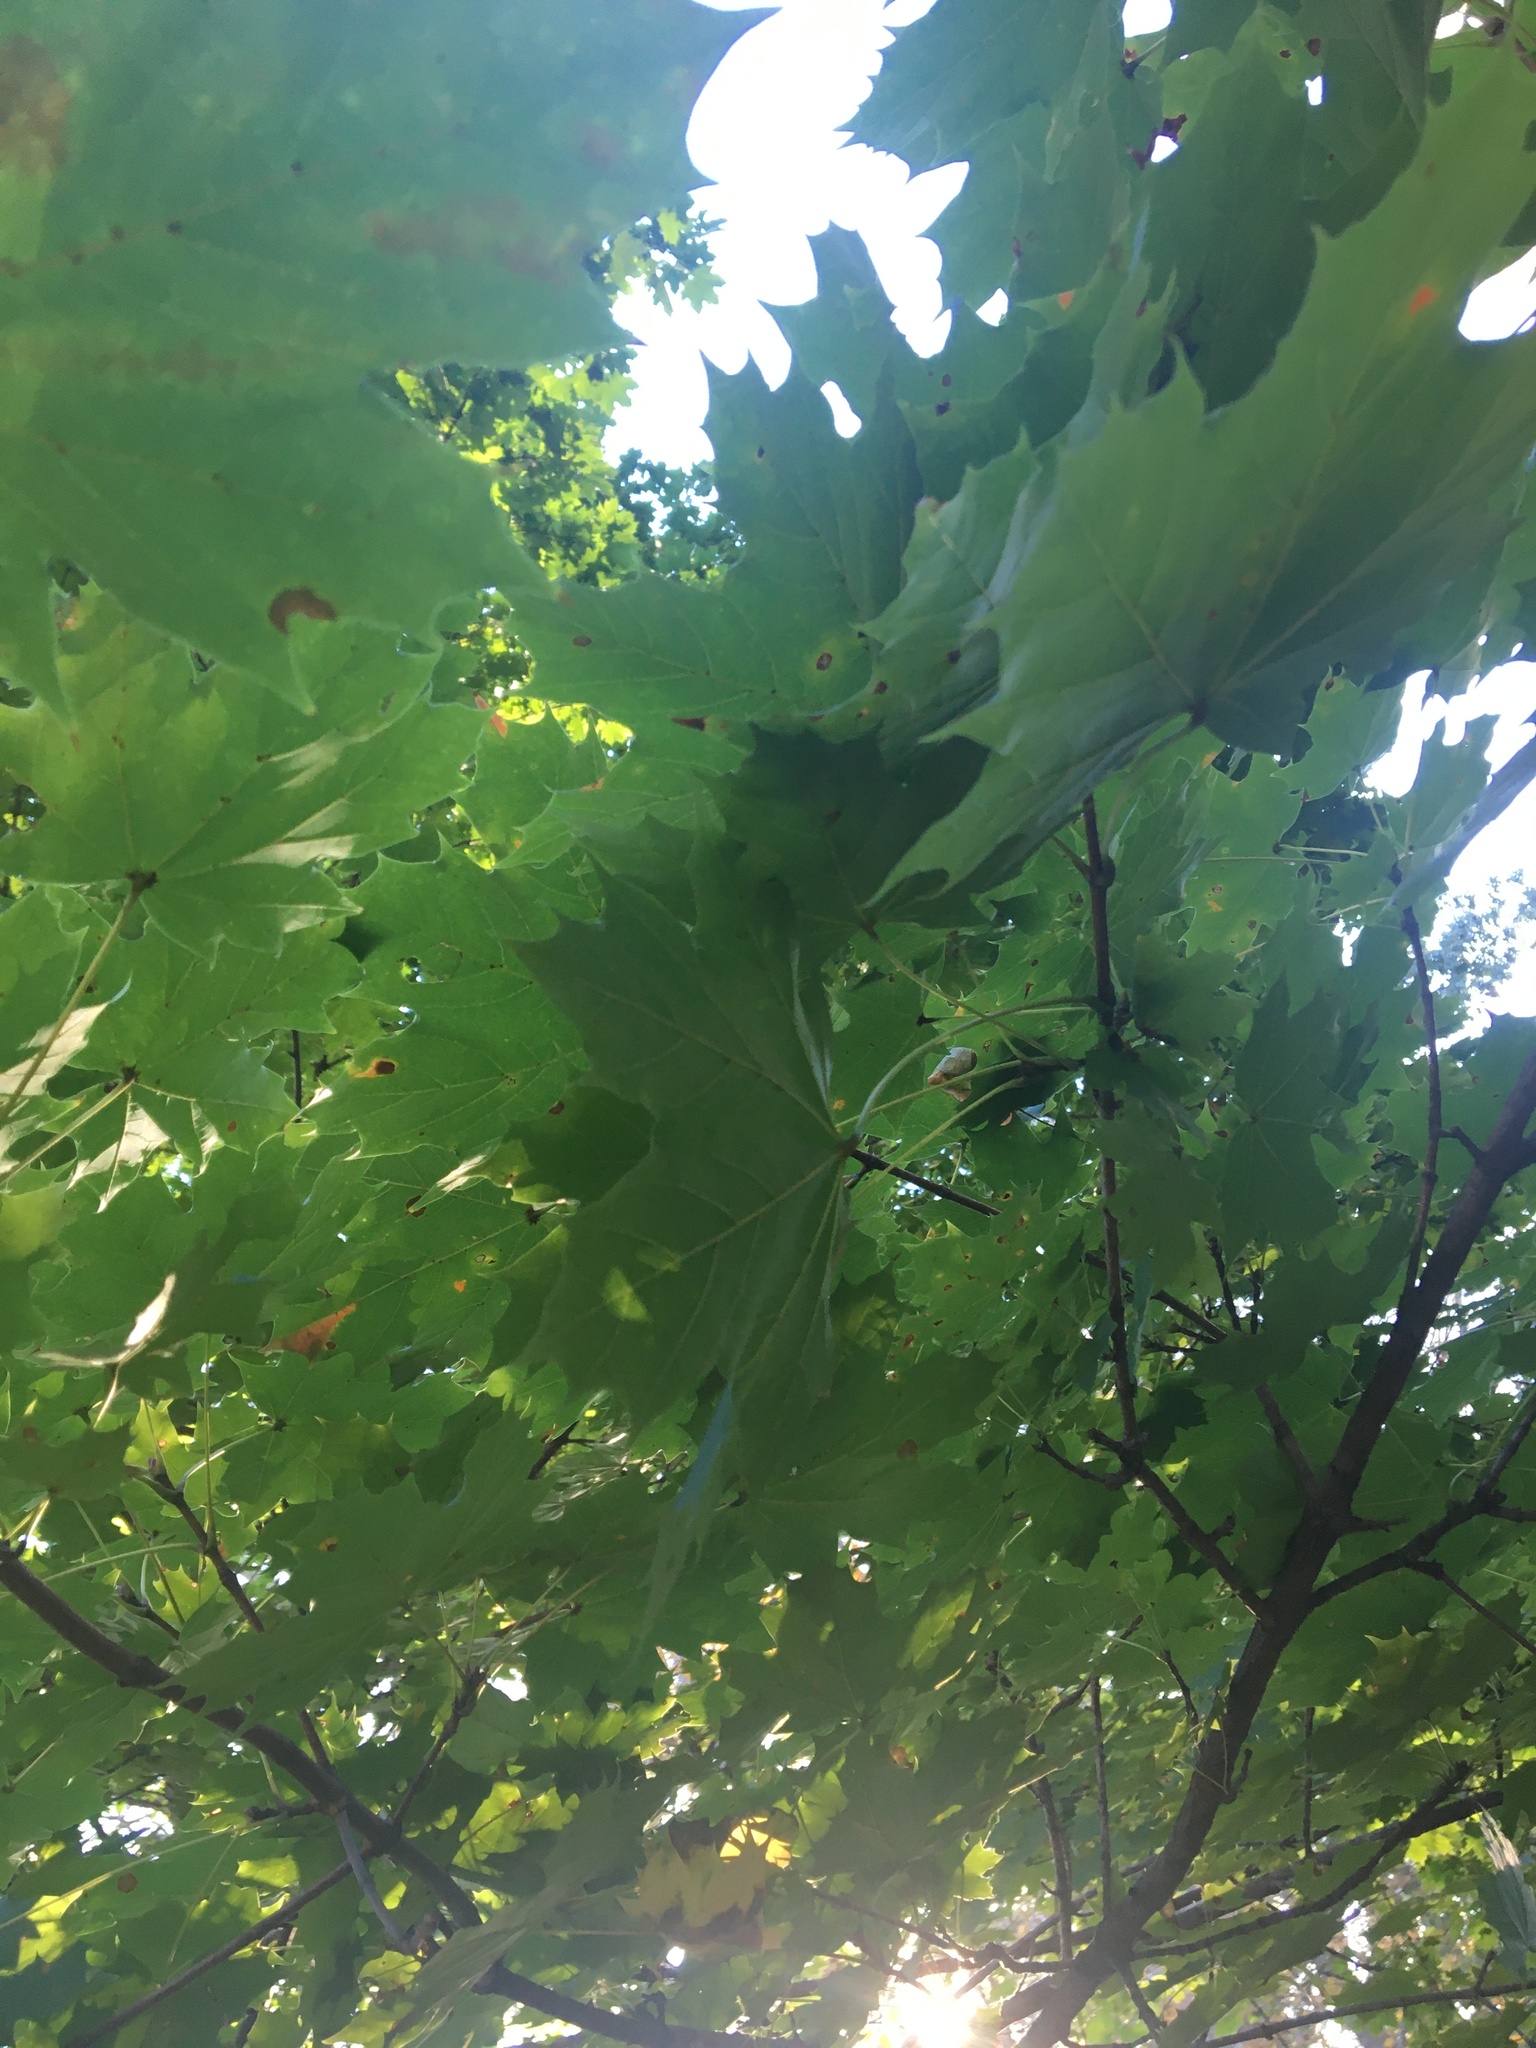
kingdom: Plantae
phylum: Tracheophyta
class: Magnoliopsida
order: Sapindales
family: Sapindaceae
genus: Acer
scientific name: Acer platanoides
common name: Norway maple
